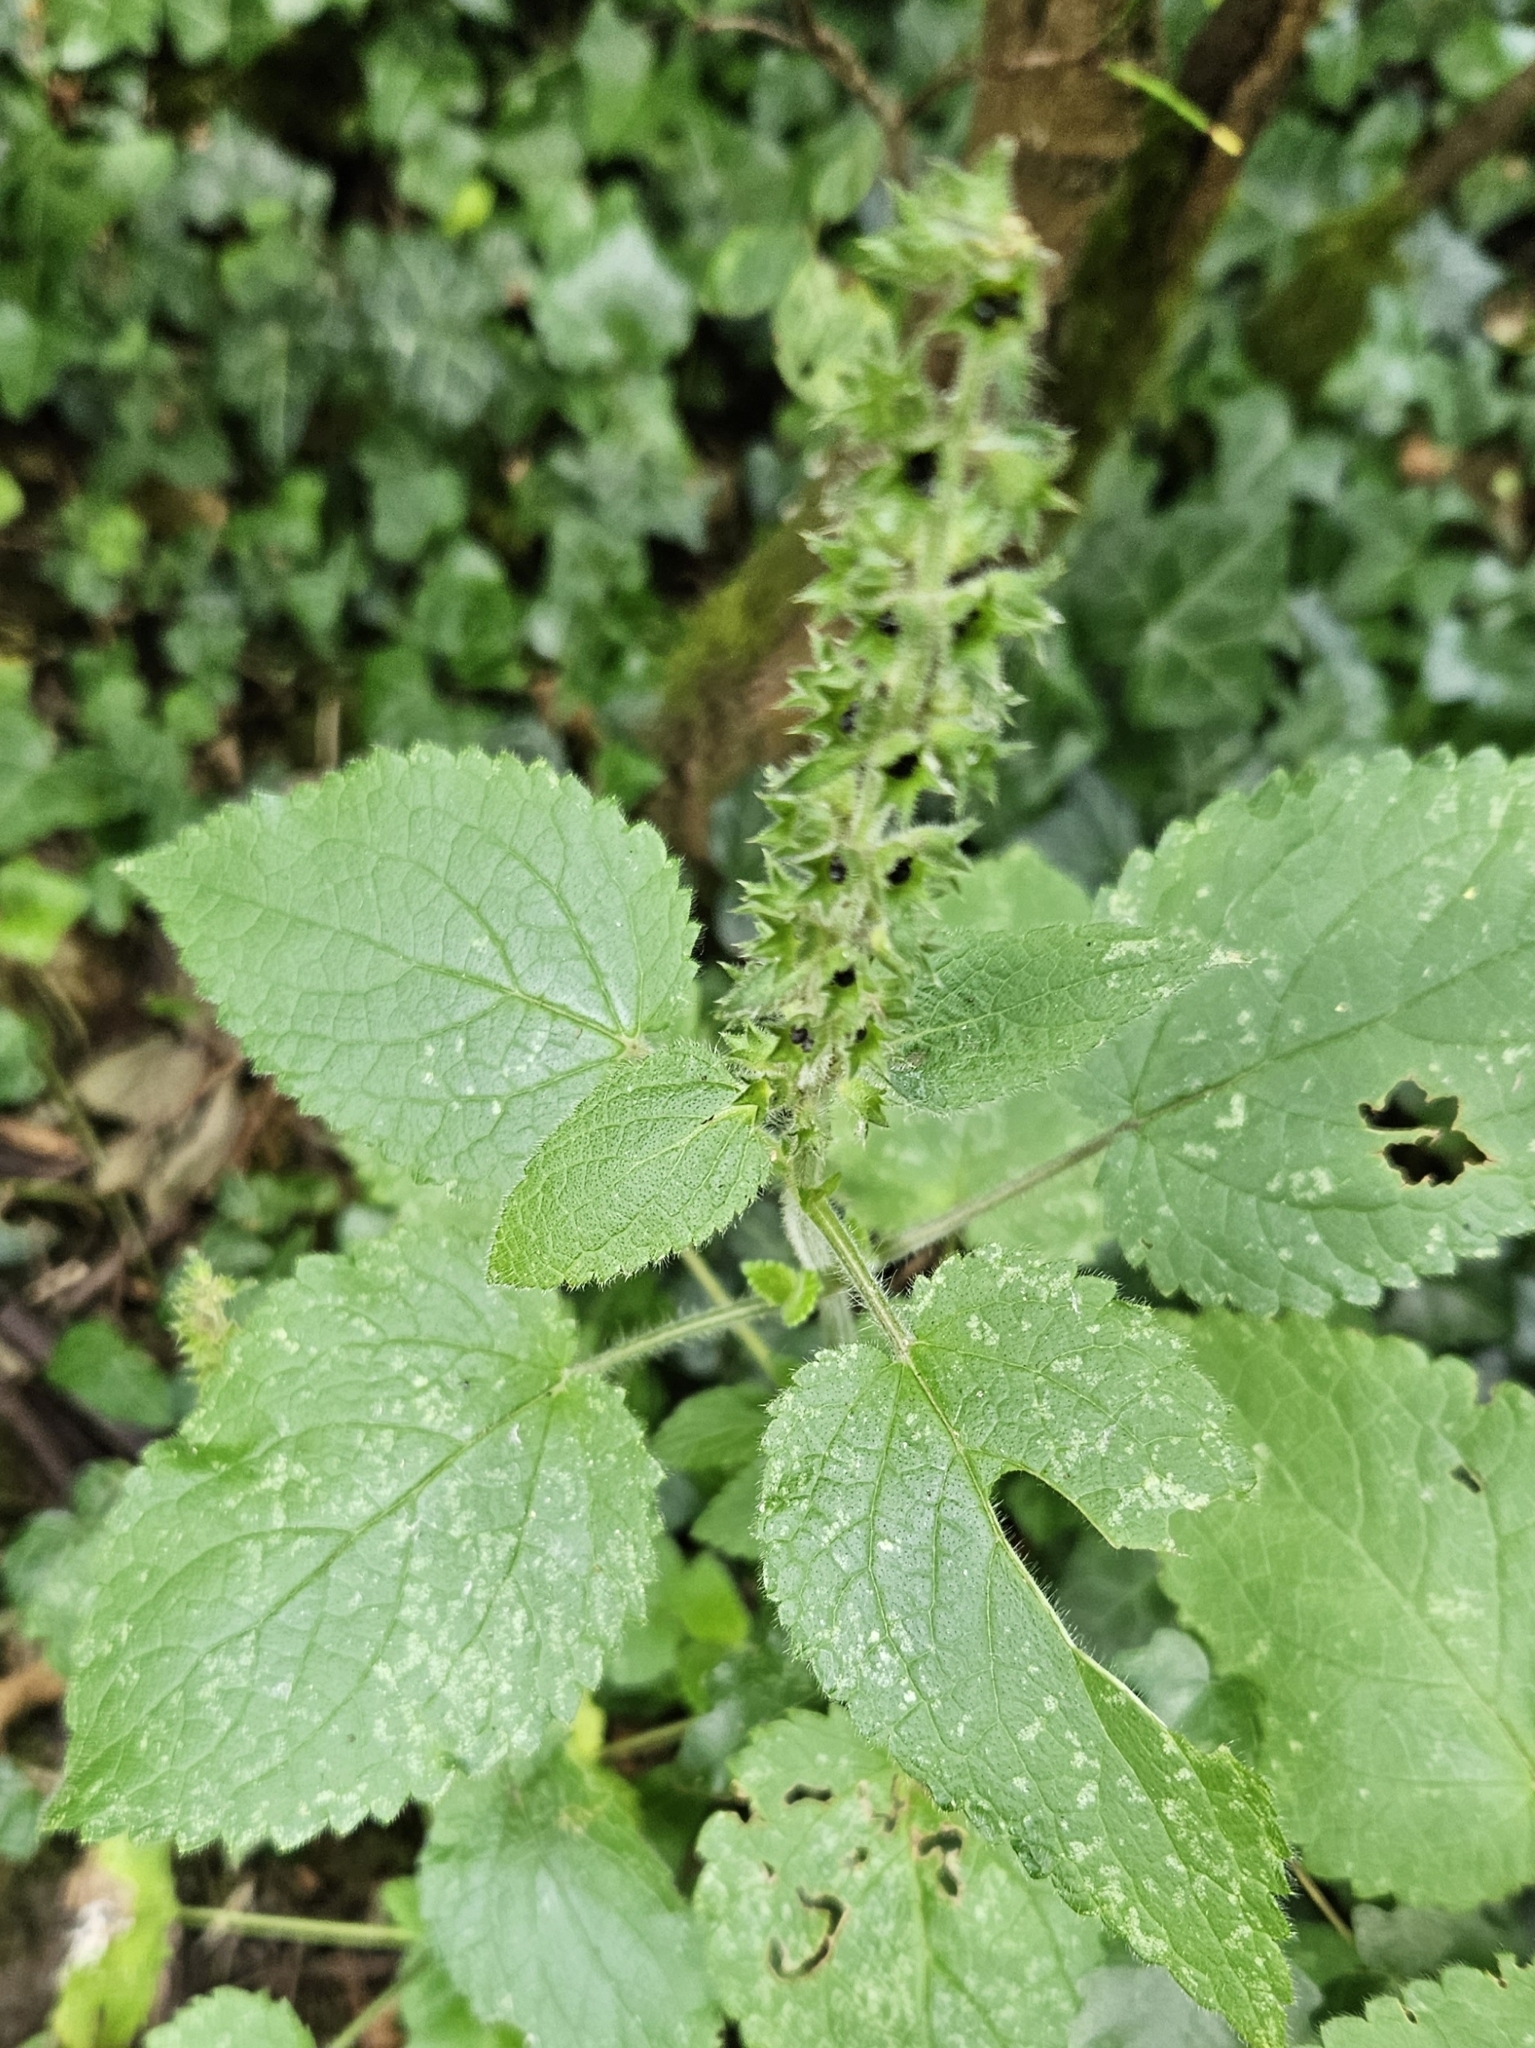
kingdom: Plantae
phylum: Tracheophyta
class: Magnoliopsida
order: Lamiales
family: Lamiaceae
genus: Stachys
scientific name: Stachys sylvatica
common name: Hedge woundwort
